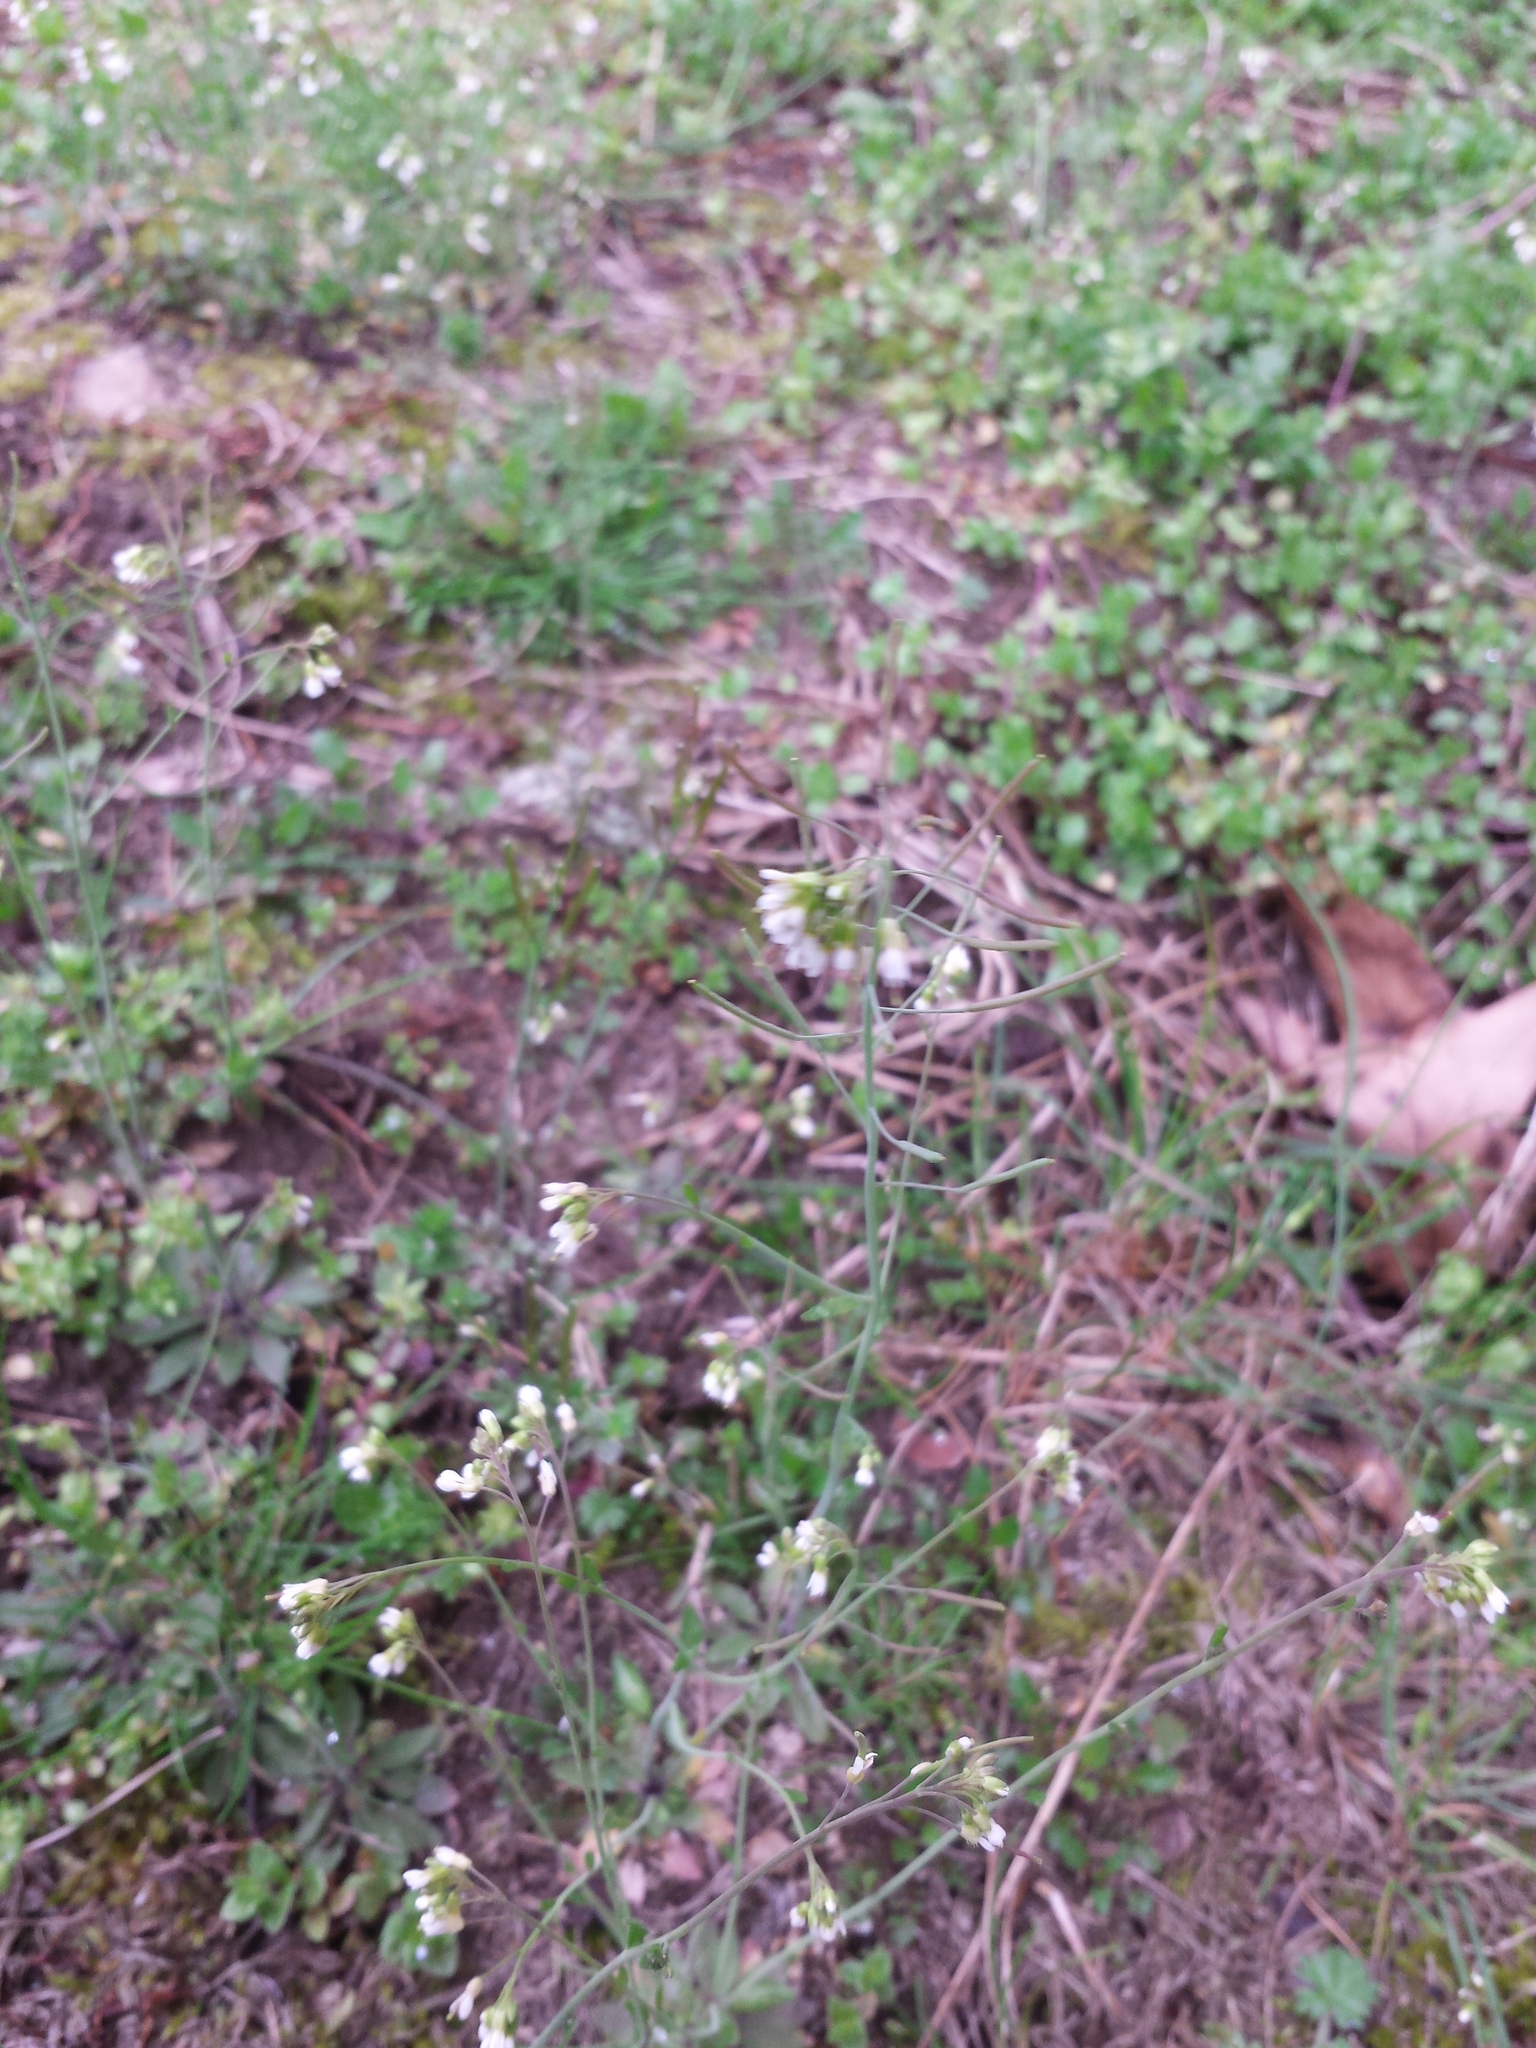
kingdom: Plantae
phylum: Tracheophyta
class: Magnoliopsida
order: Brassicales
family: Brassicaceae
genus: Arabidopsis
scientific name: Arabidopsis thaliana
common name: Thale cress
